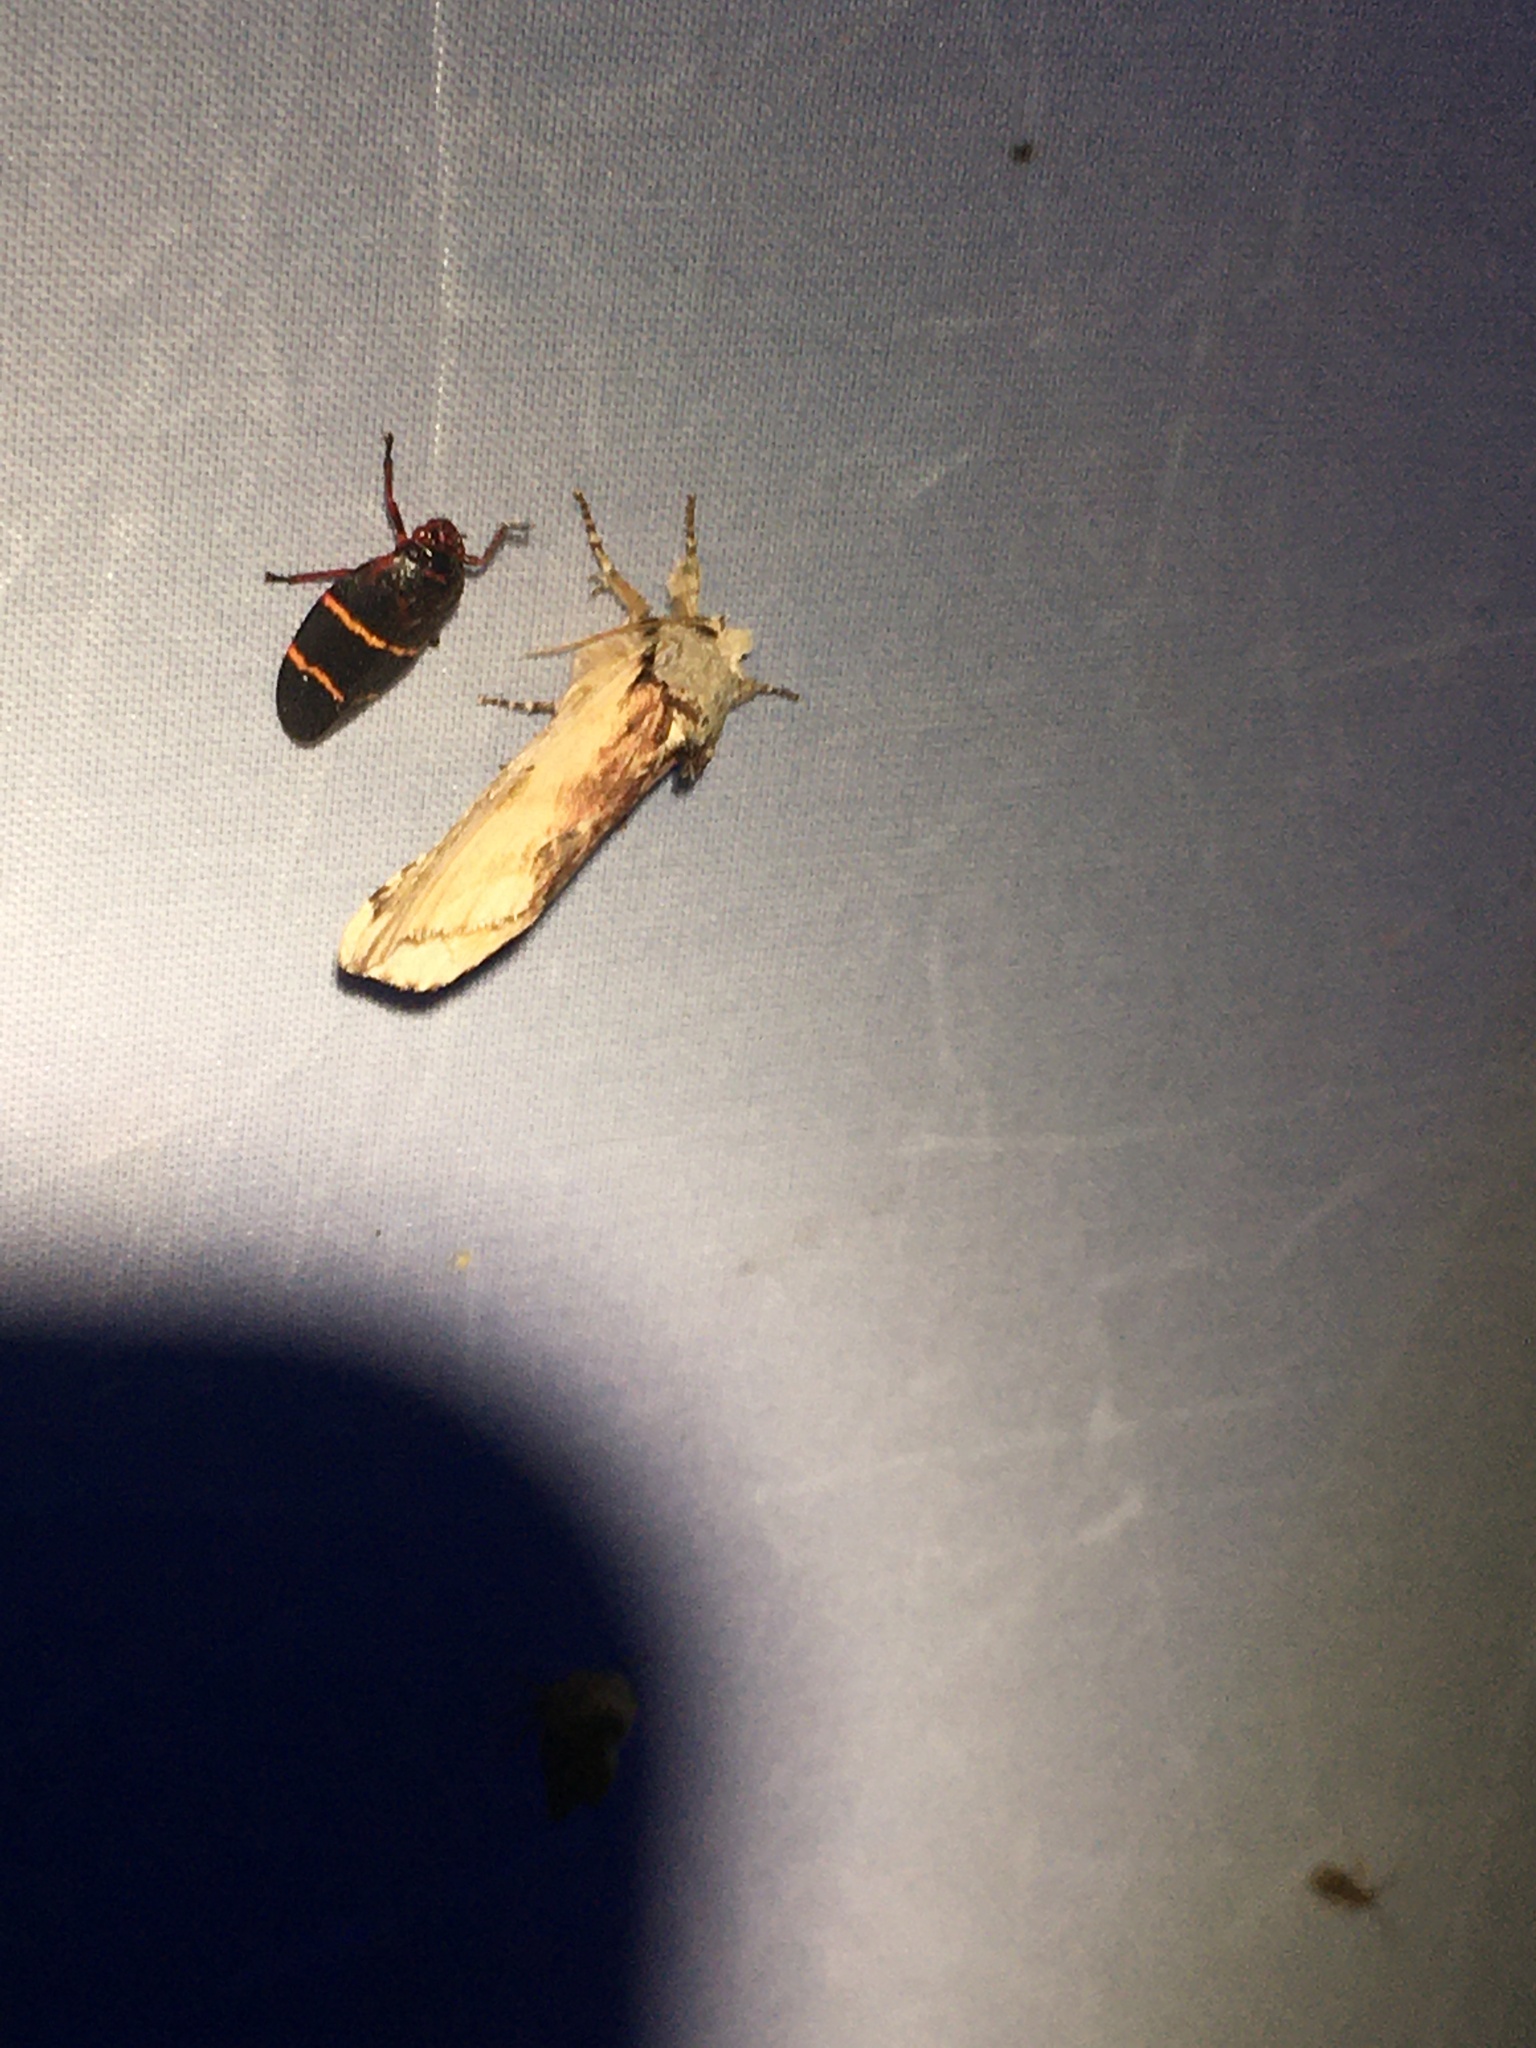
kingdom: Animalia
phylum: Arthropoda
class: Insecta
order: Hemiptera
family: Cercopidae
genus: Prosapia
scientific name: Prosapia bicincta
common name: Twolined spittlebug
